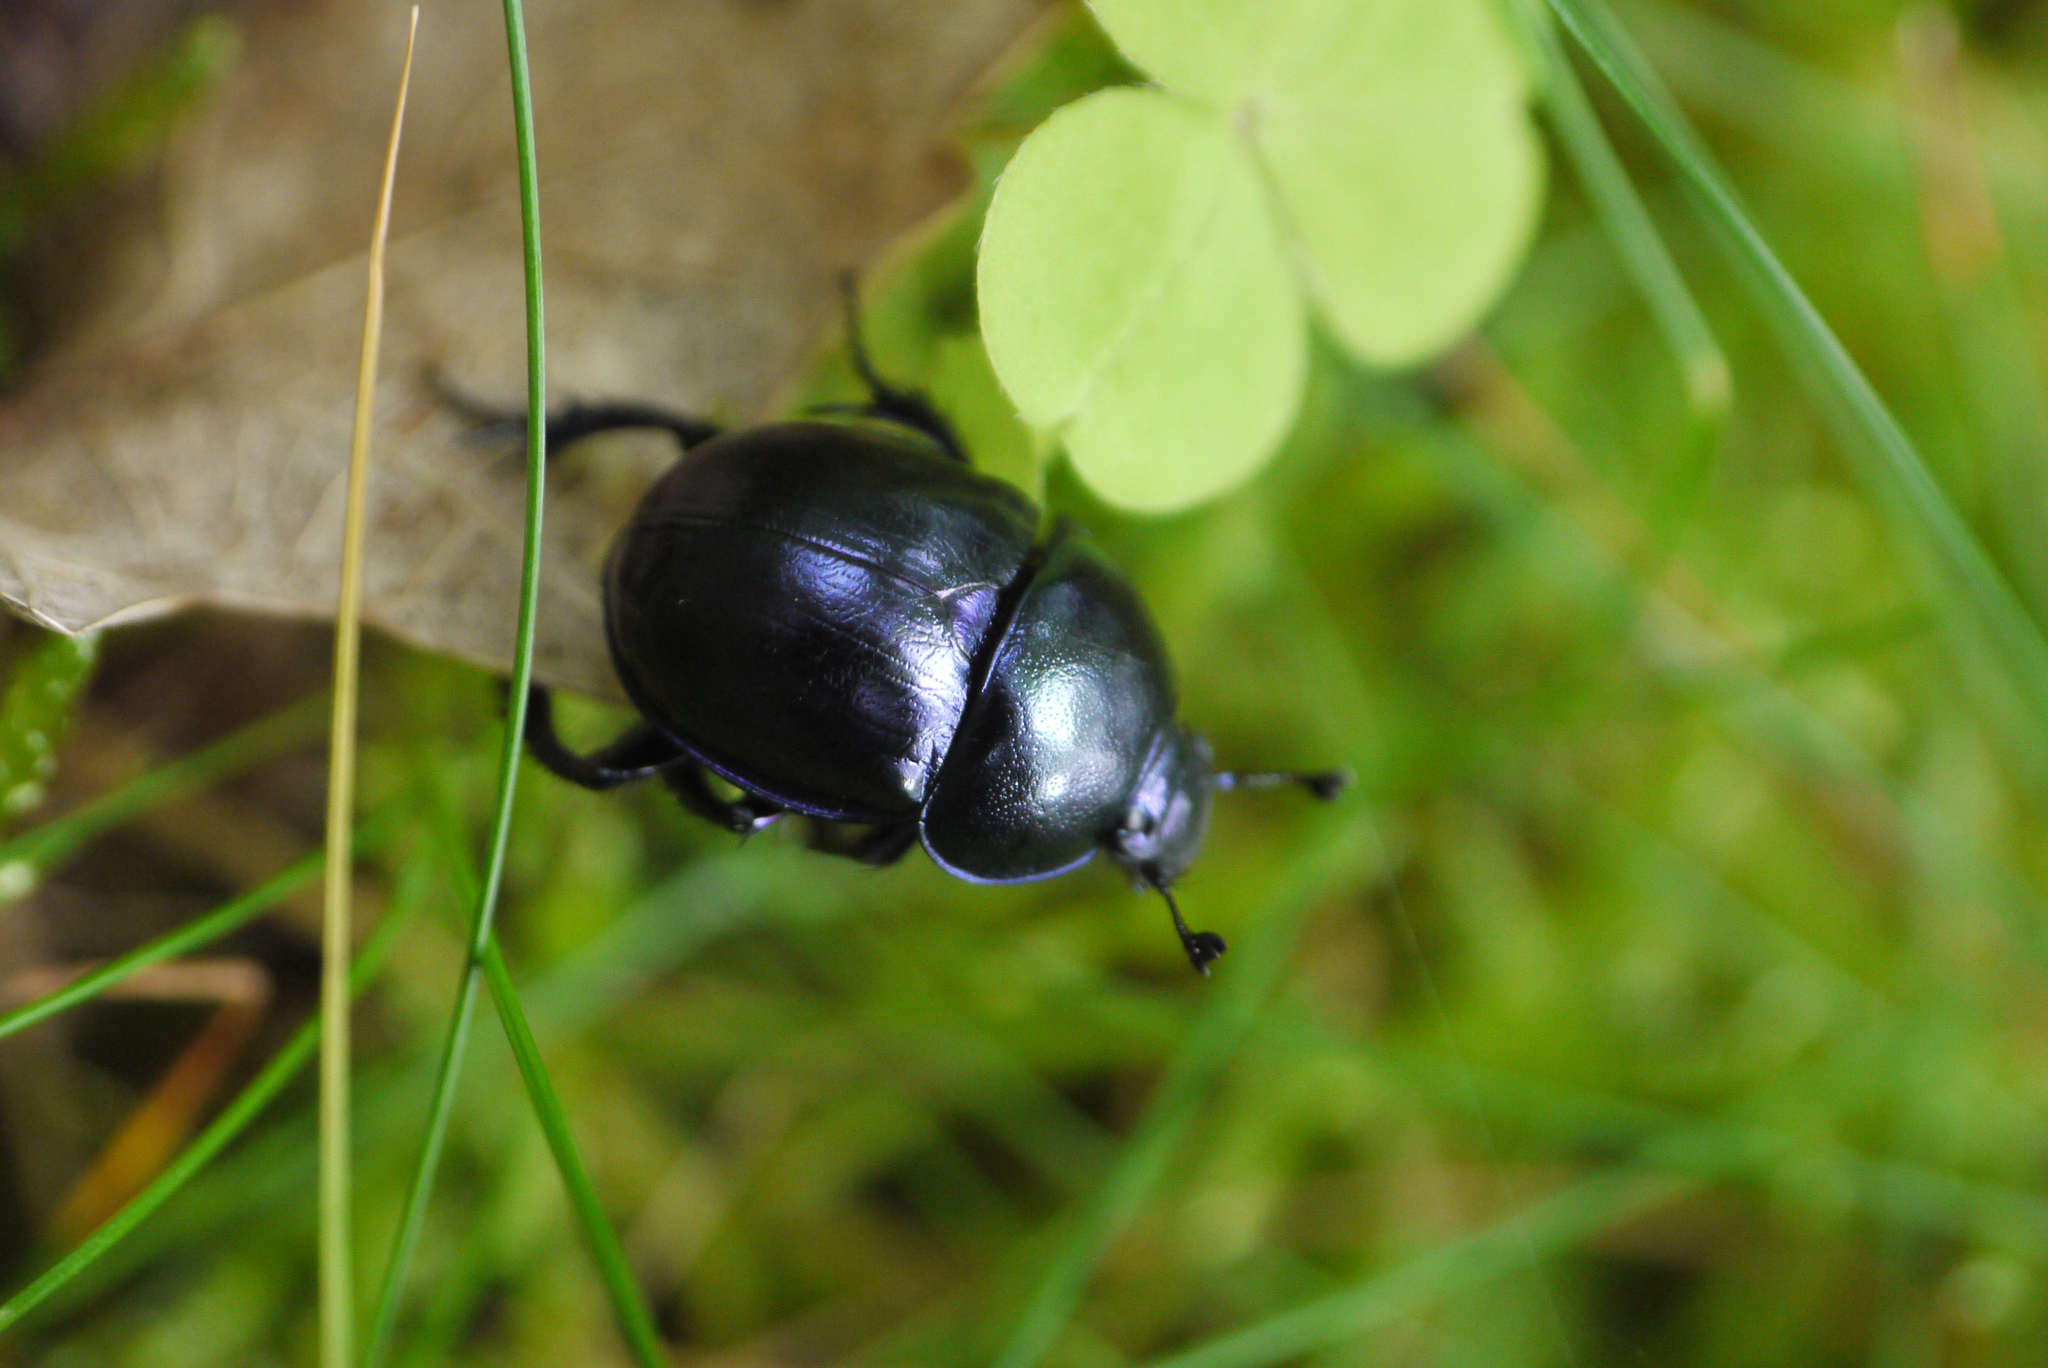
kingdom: Animalia
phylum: Arthropoda
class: Insecta
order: Coleoptera
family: Geotrupidae
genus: Trypocopris
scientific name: Trypocopris vernalis
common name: Spring dumbledor
